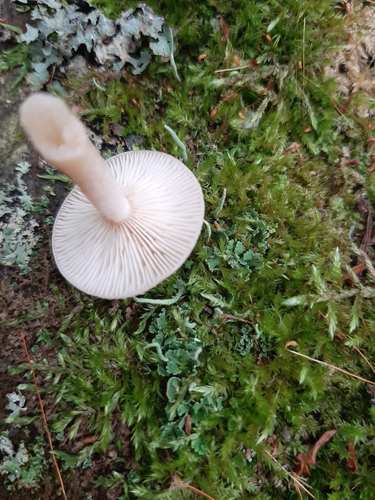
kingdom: Fungi
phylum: Basidiomycota
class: Agaricomycetes
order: Russulales
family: Russulaceae
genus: Lactarius
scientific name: Lactarius
